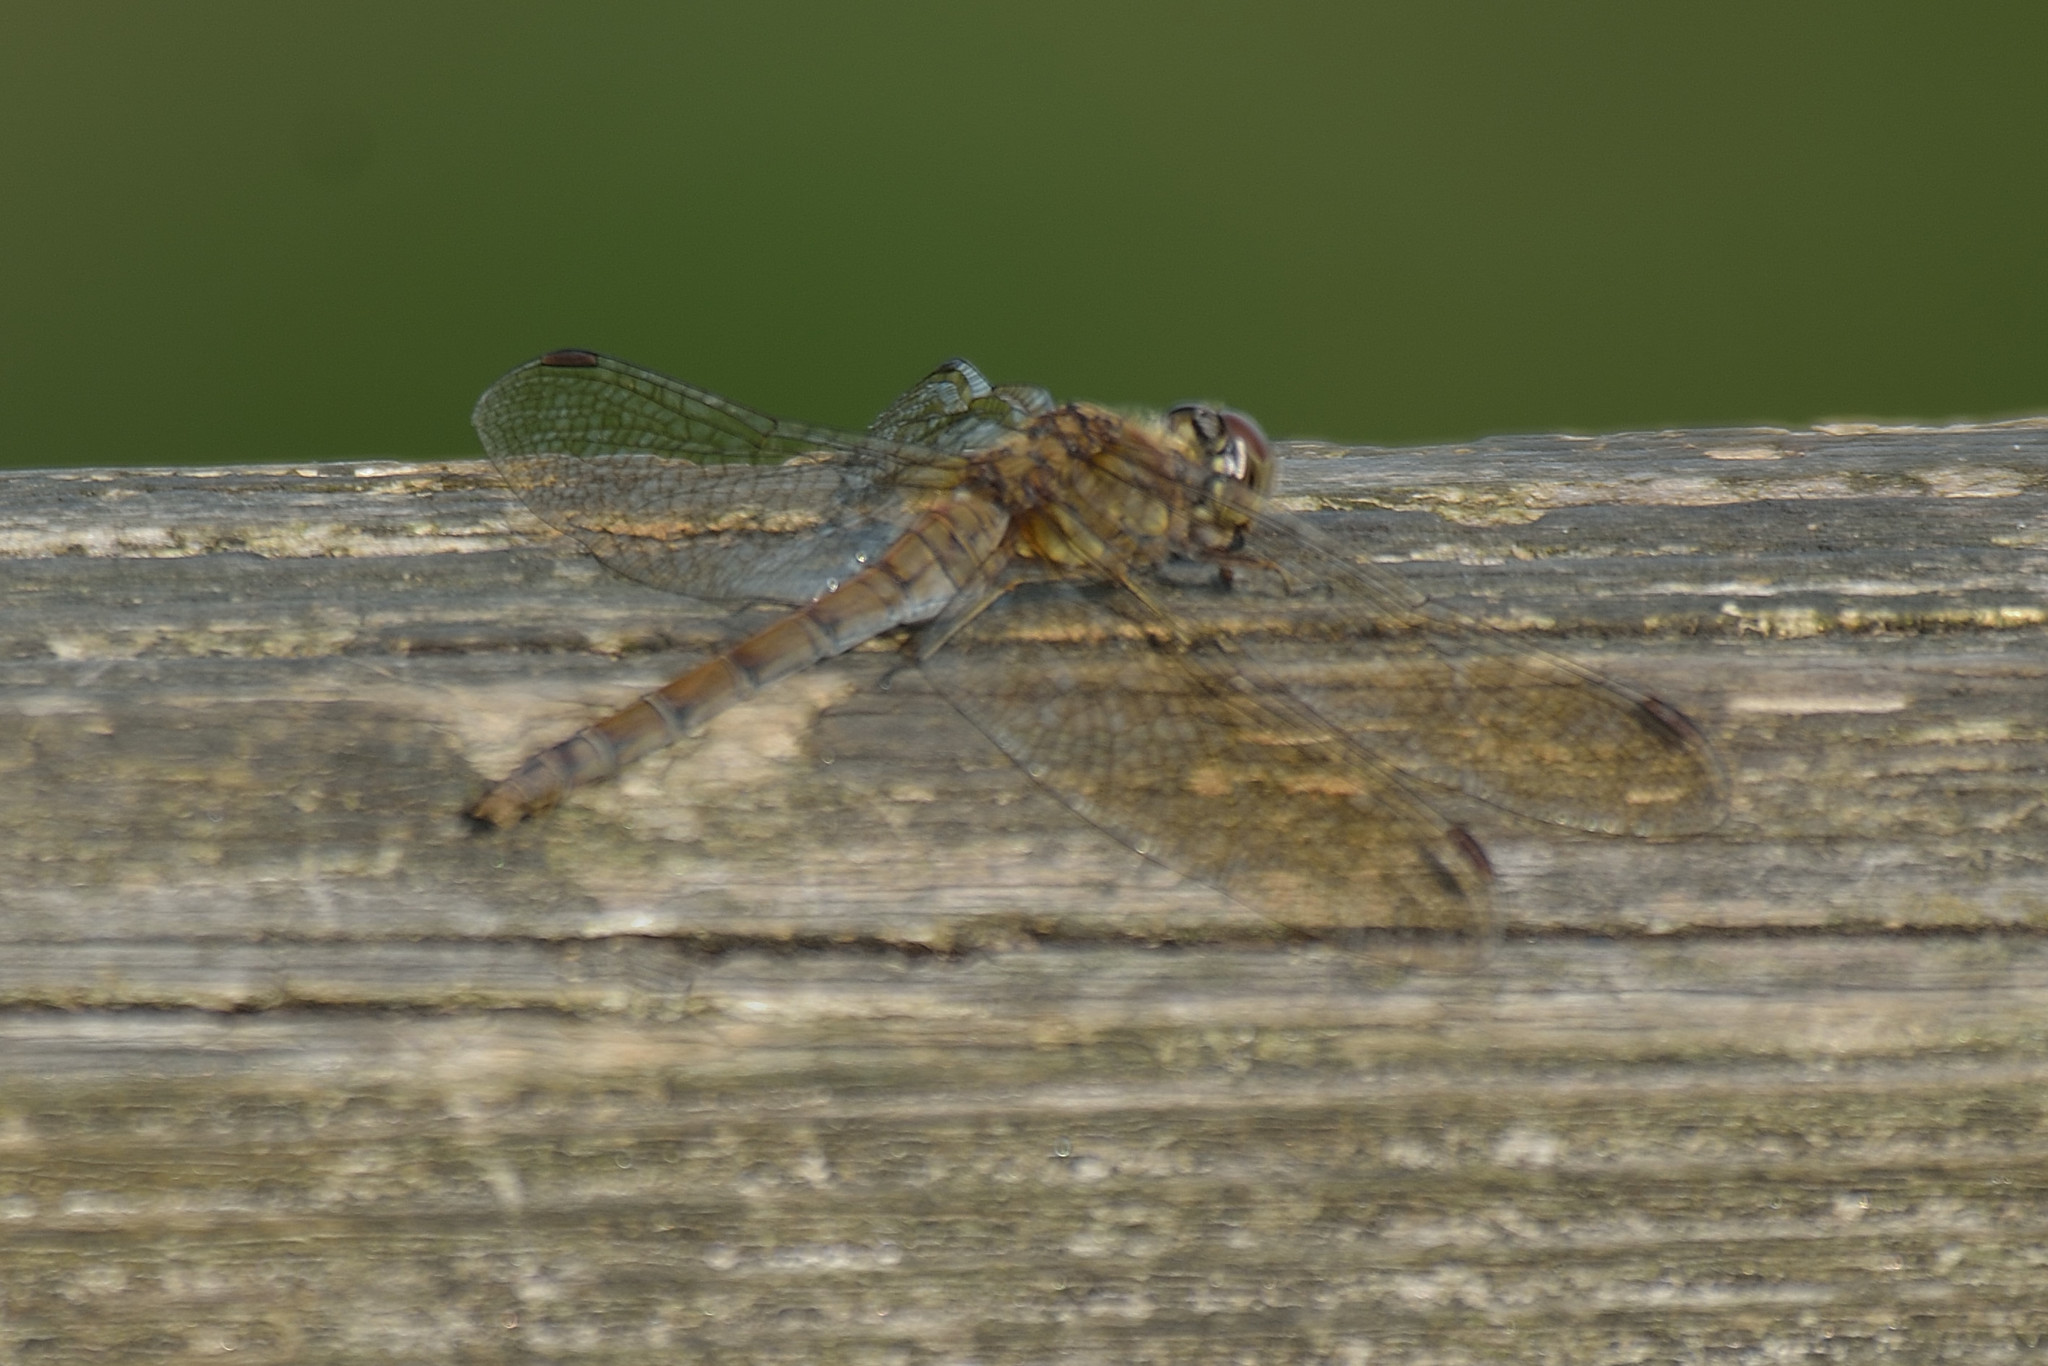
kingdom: Animalia
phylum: Arthropoda
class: Insecta
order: Odonata
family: Libellulidae
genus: Sympetrum
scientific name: Sympetrum striolatum
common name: Common darter
